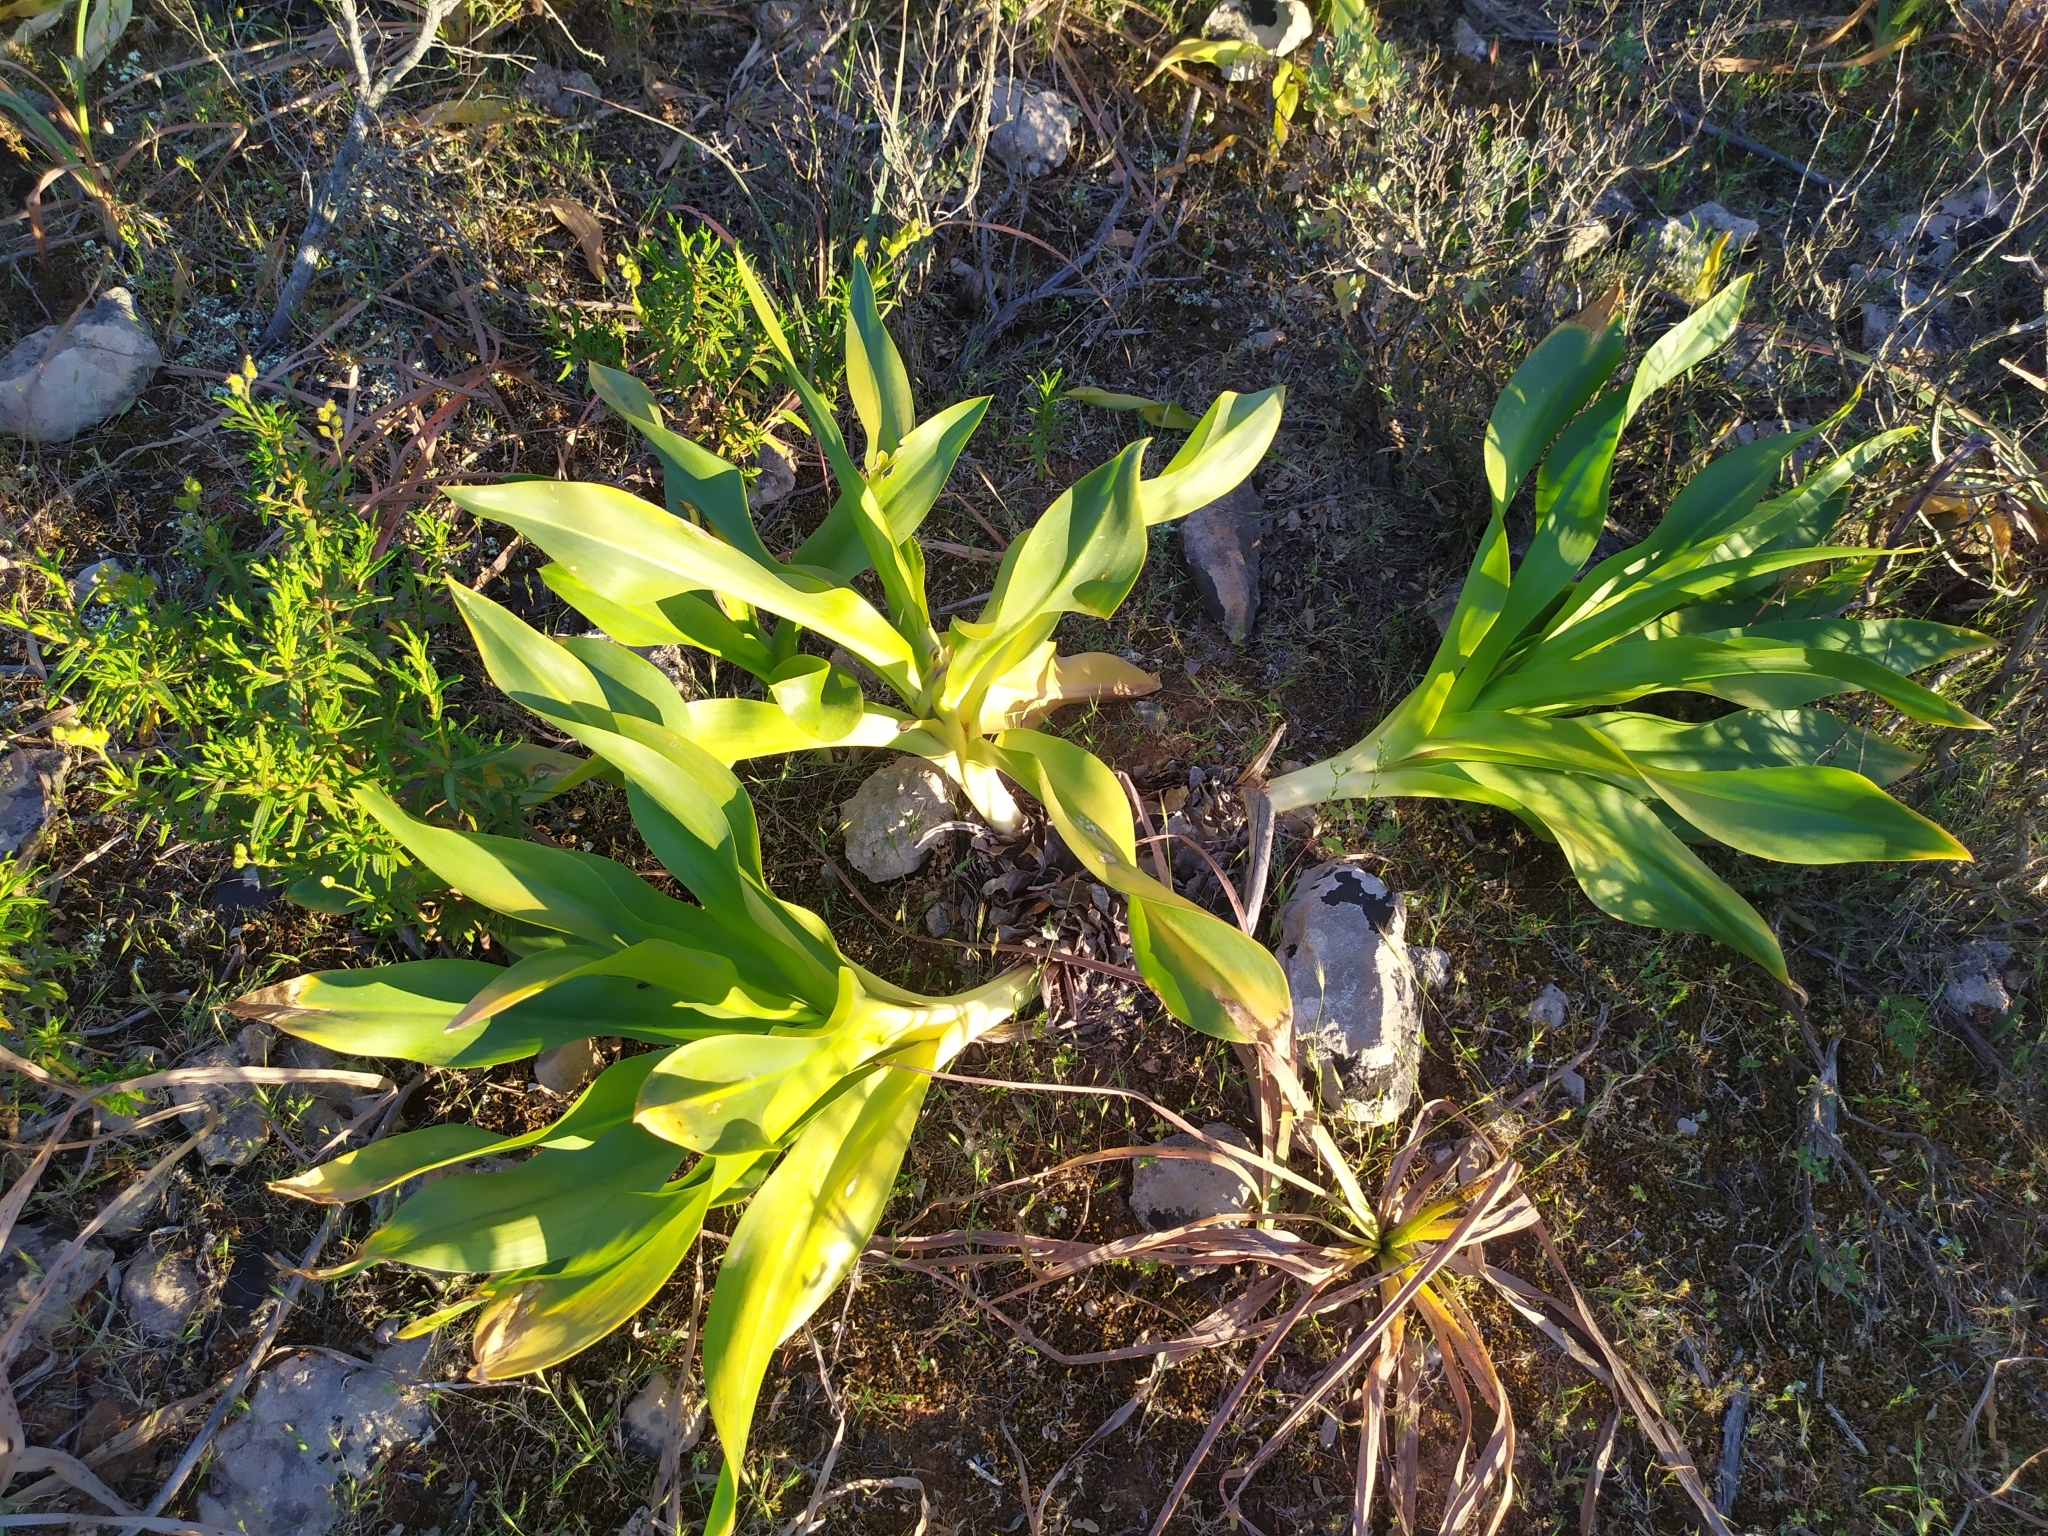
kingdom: Plantae
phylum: Tracheophyta
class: Liliopsida
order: Asparagales
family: Asparagaceae
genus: Drimia
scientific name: Drimia maritima
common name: Maritime squill
